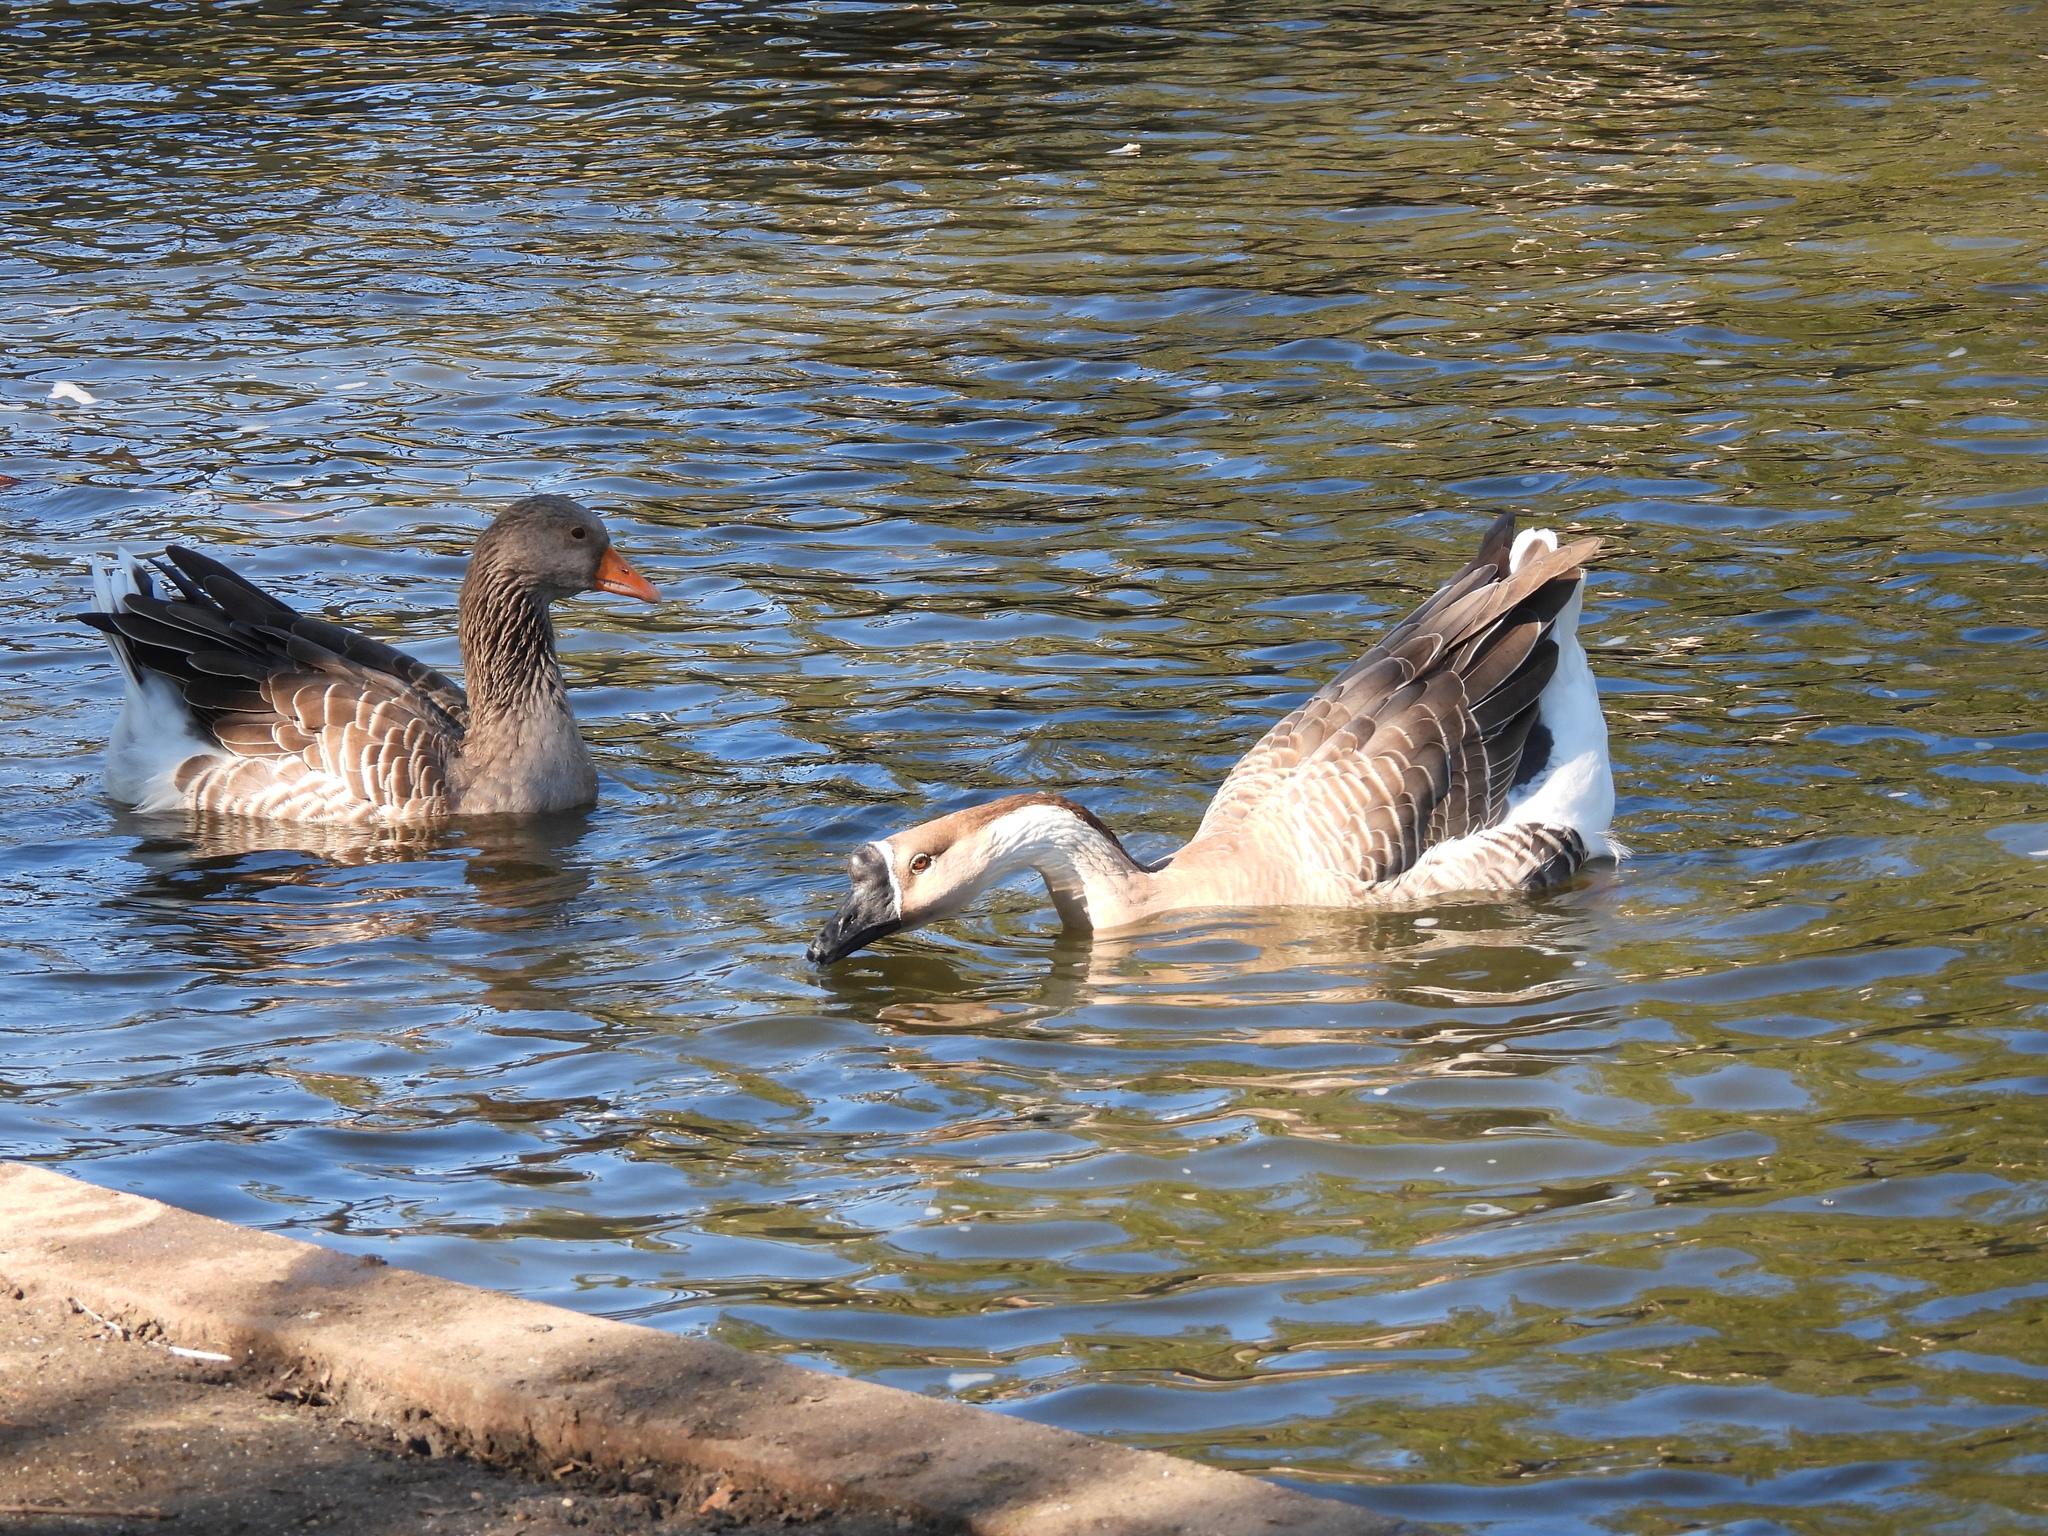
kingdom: Animalia
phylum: Chordata
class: Aves
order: Anseriformes
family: Anatidae
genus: Anser
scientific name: Anser cygnoides
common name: Swan goose
